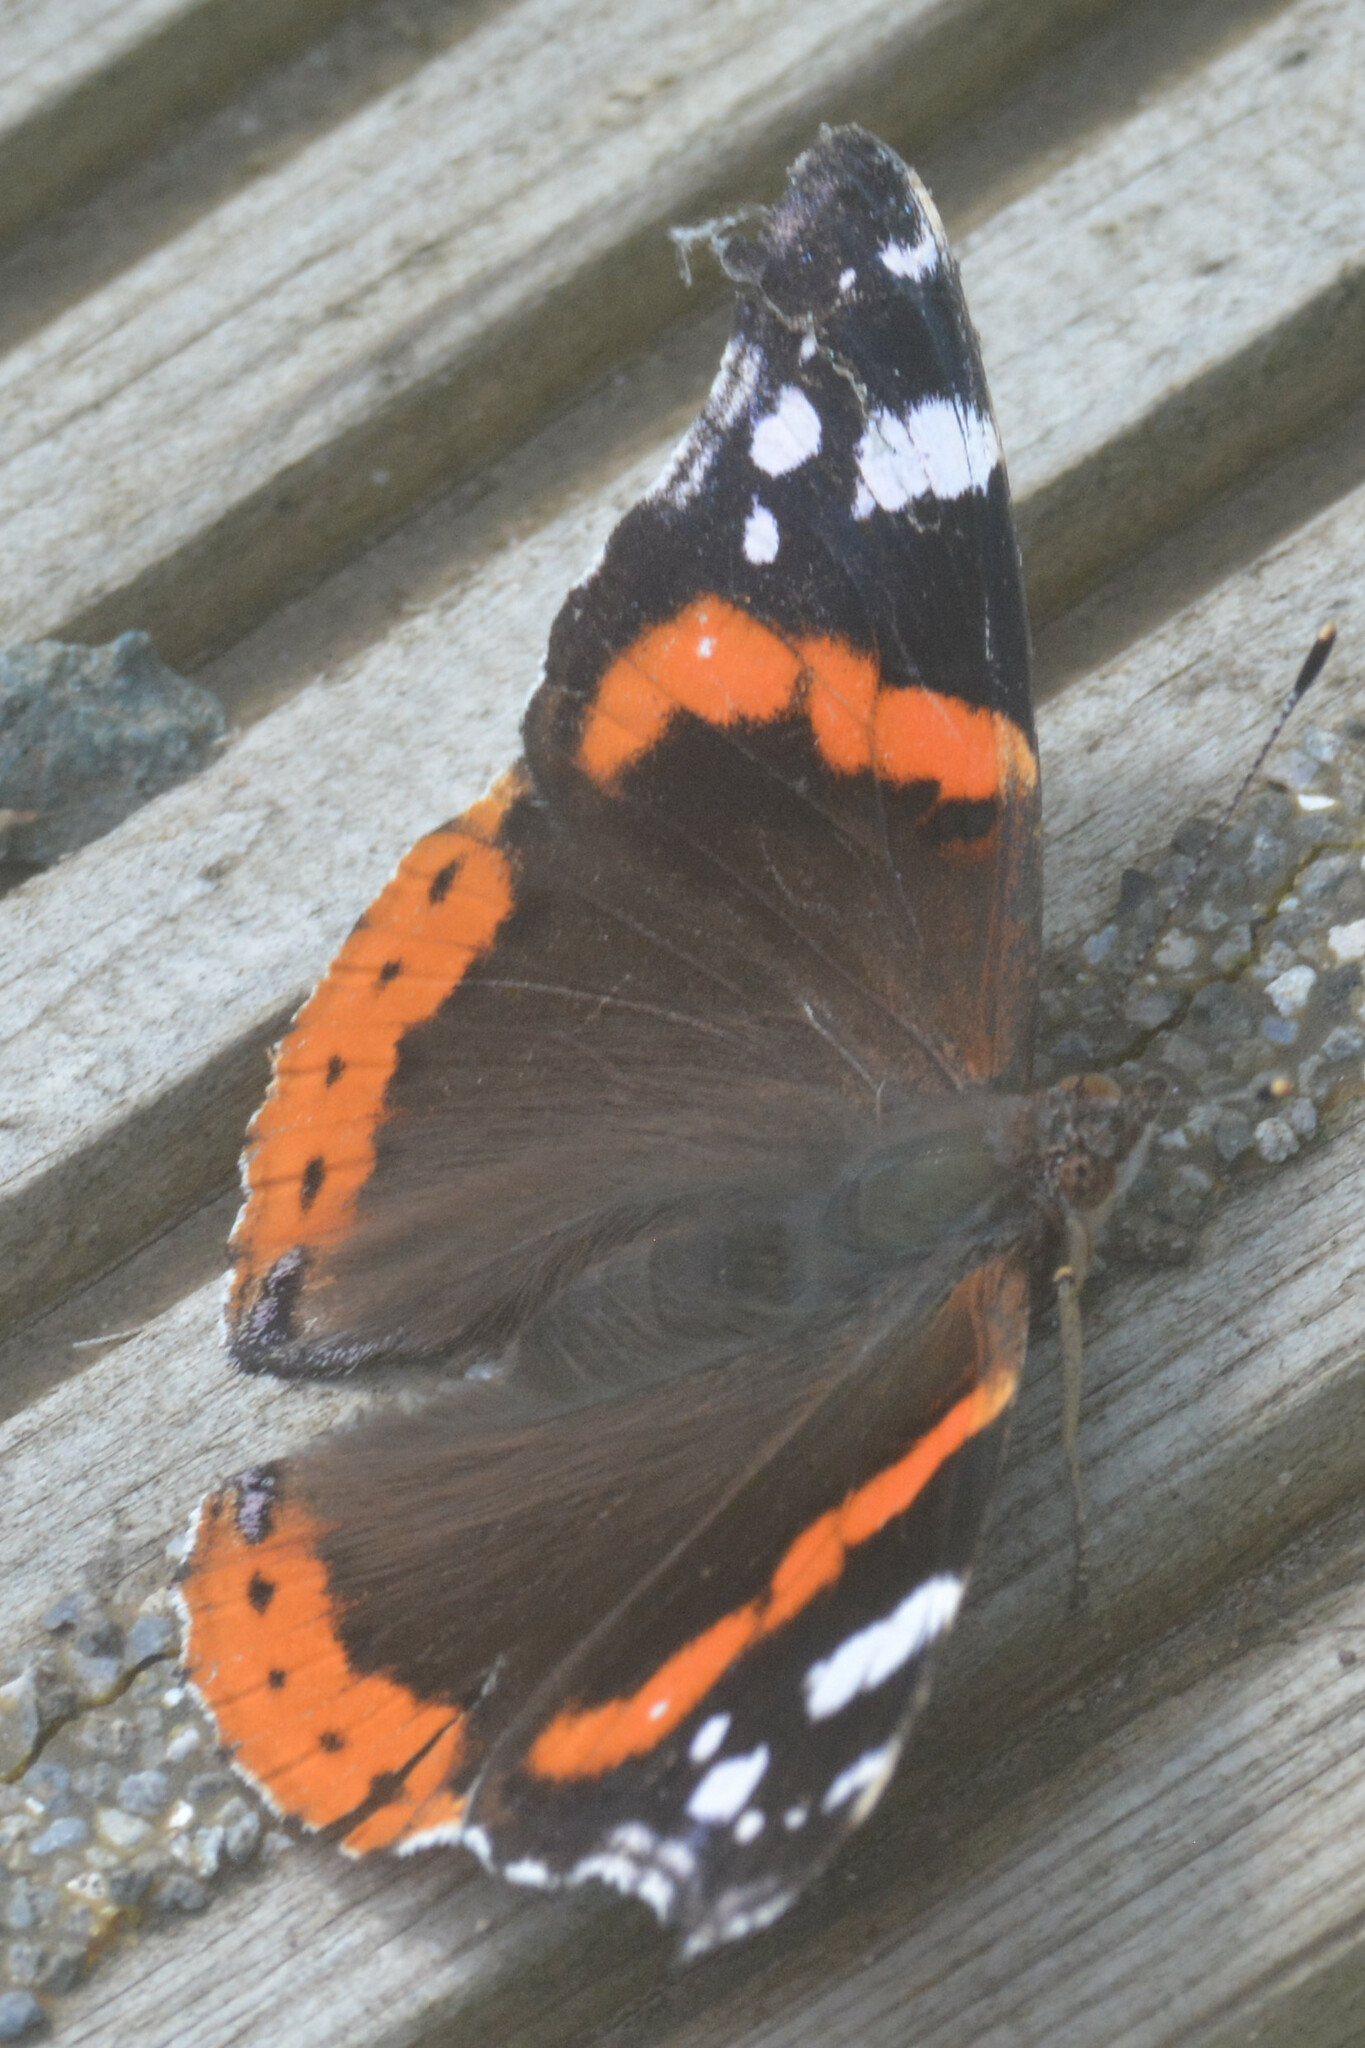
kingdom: Animalia
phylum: Arthropoda
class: Insecta
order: Lepidoptera
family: Nymphalidae
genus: Vanessa
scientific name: Vanessa atalanta
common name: Red admiral
